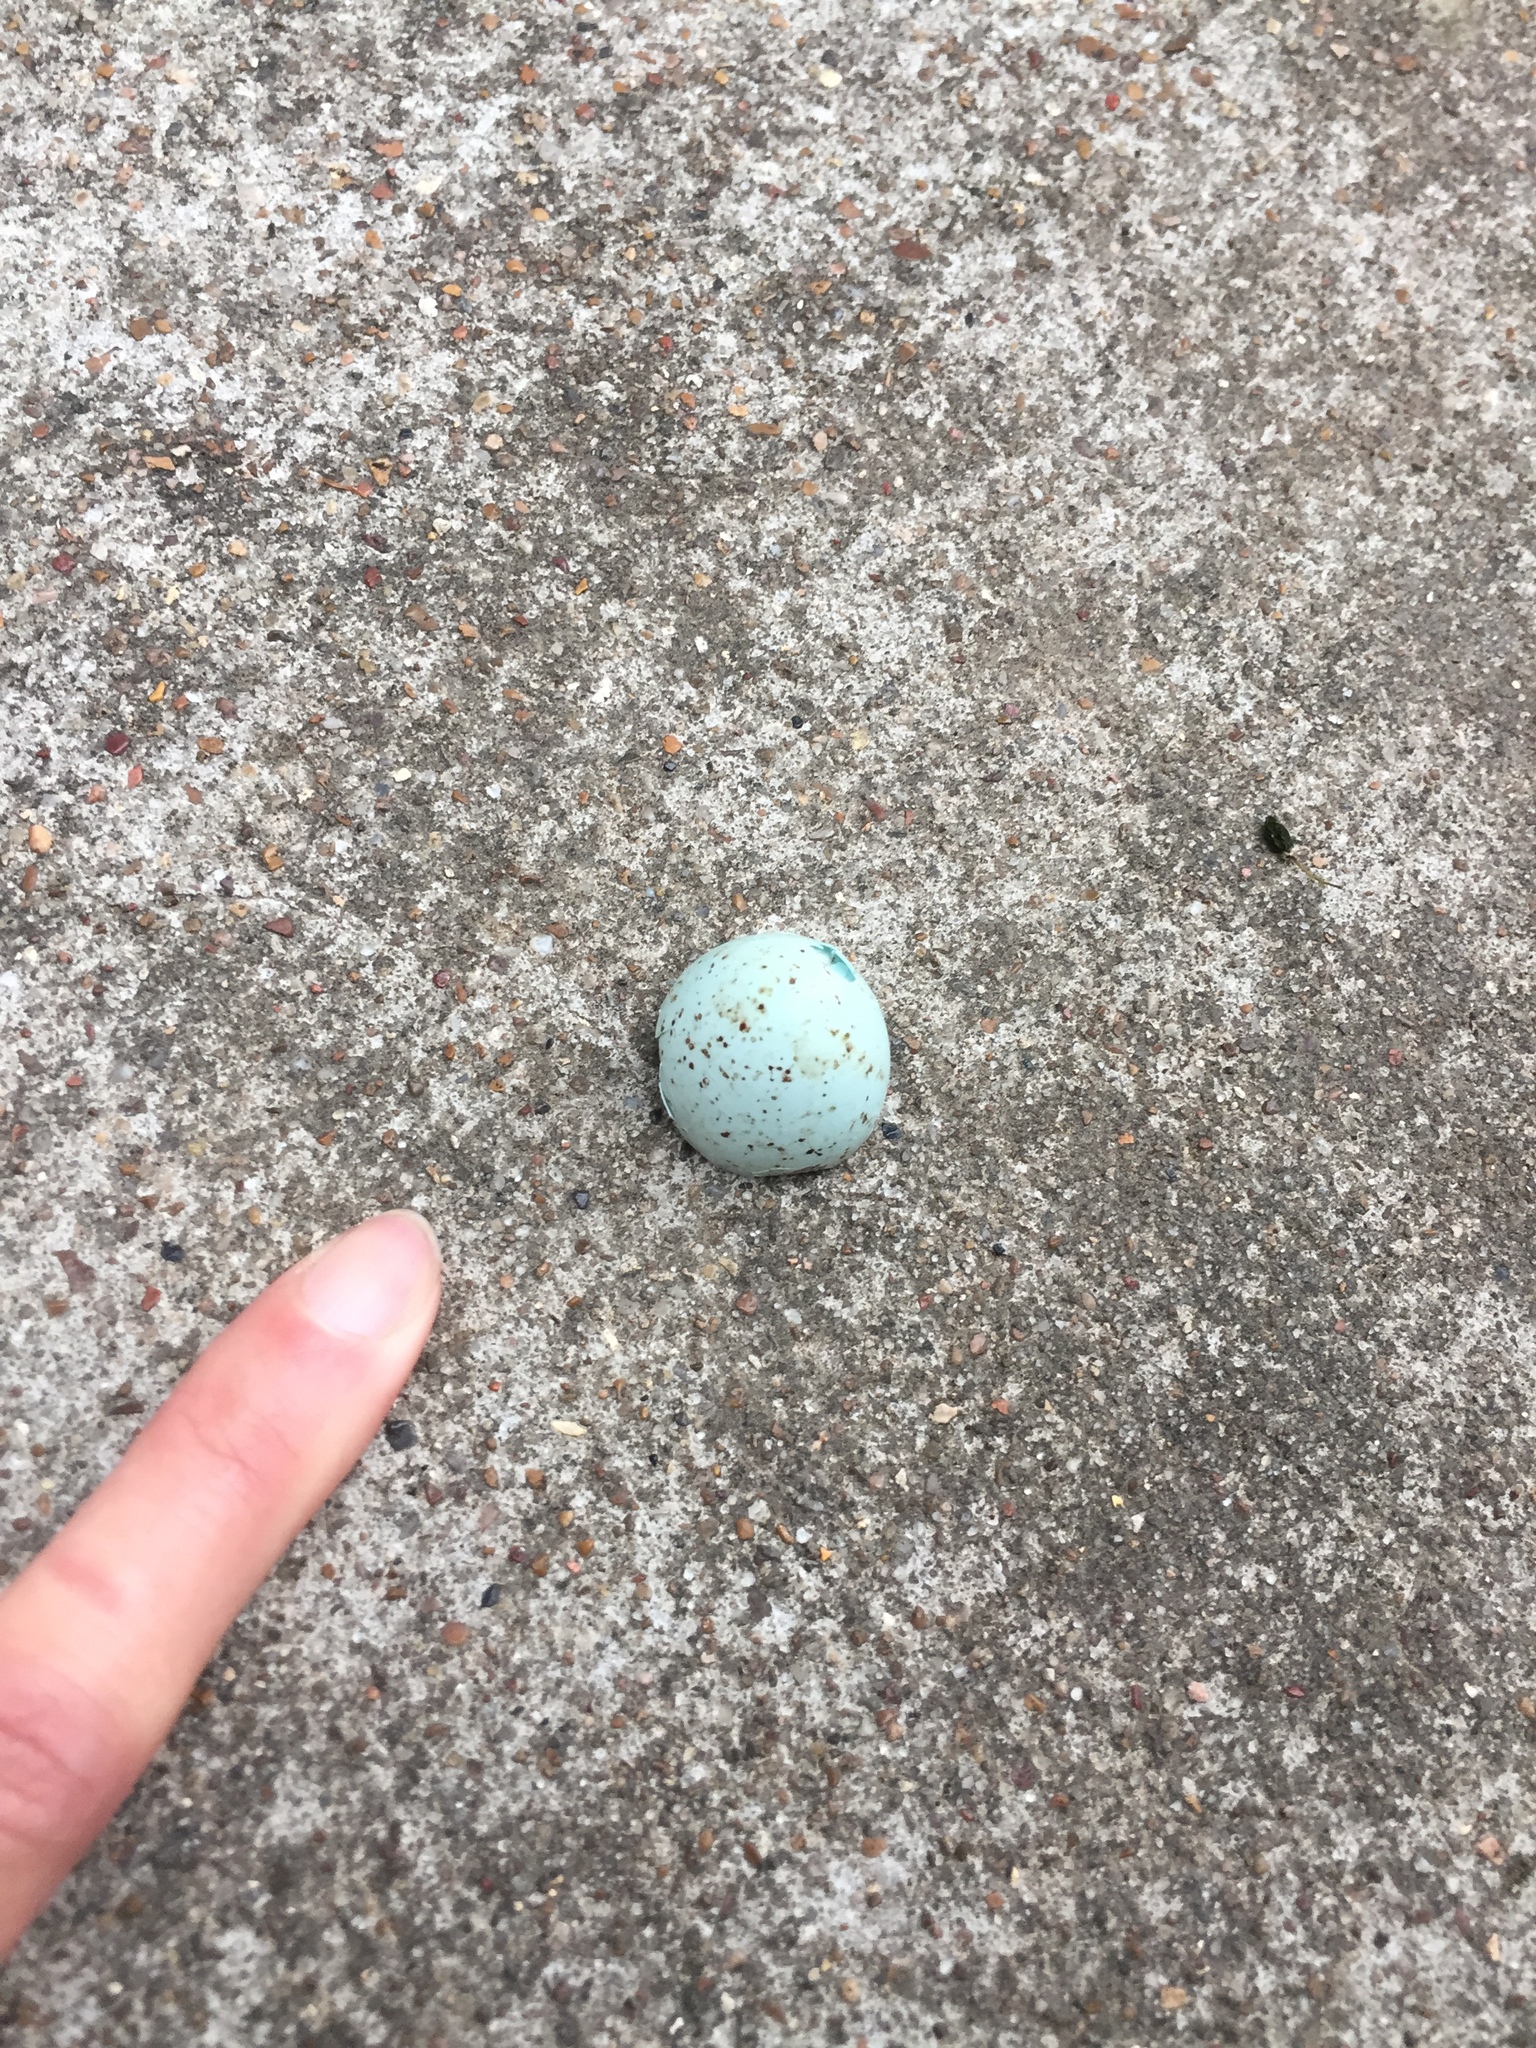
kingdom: Animalia
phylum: Chordata
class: Aves
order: Passeriformes
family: Turdidae
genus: Turdus
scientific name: Turdus migratorius
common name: American robin
